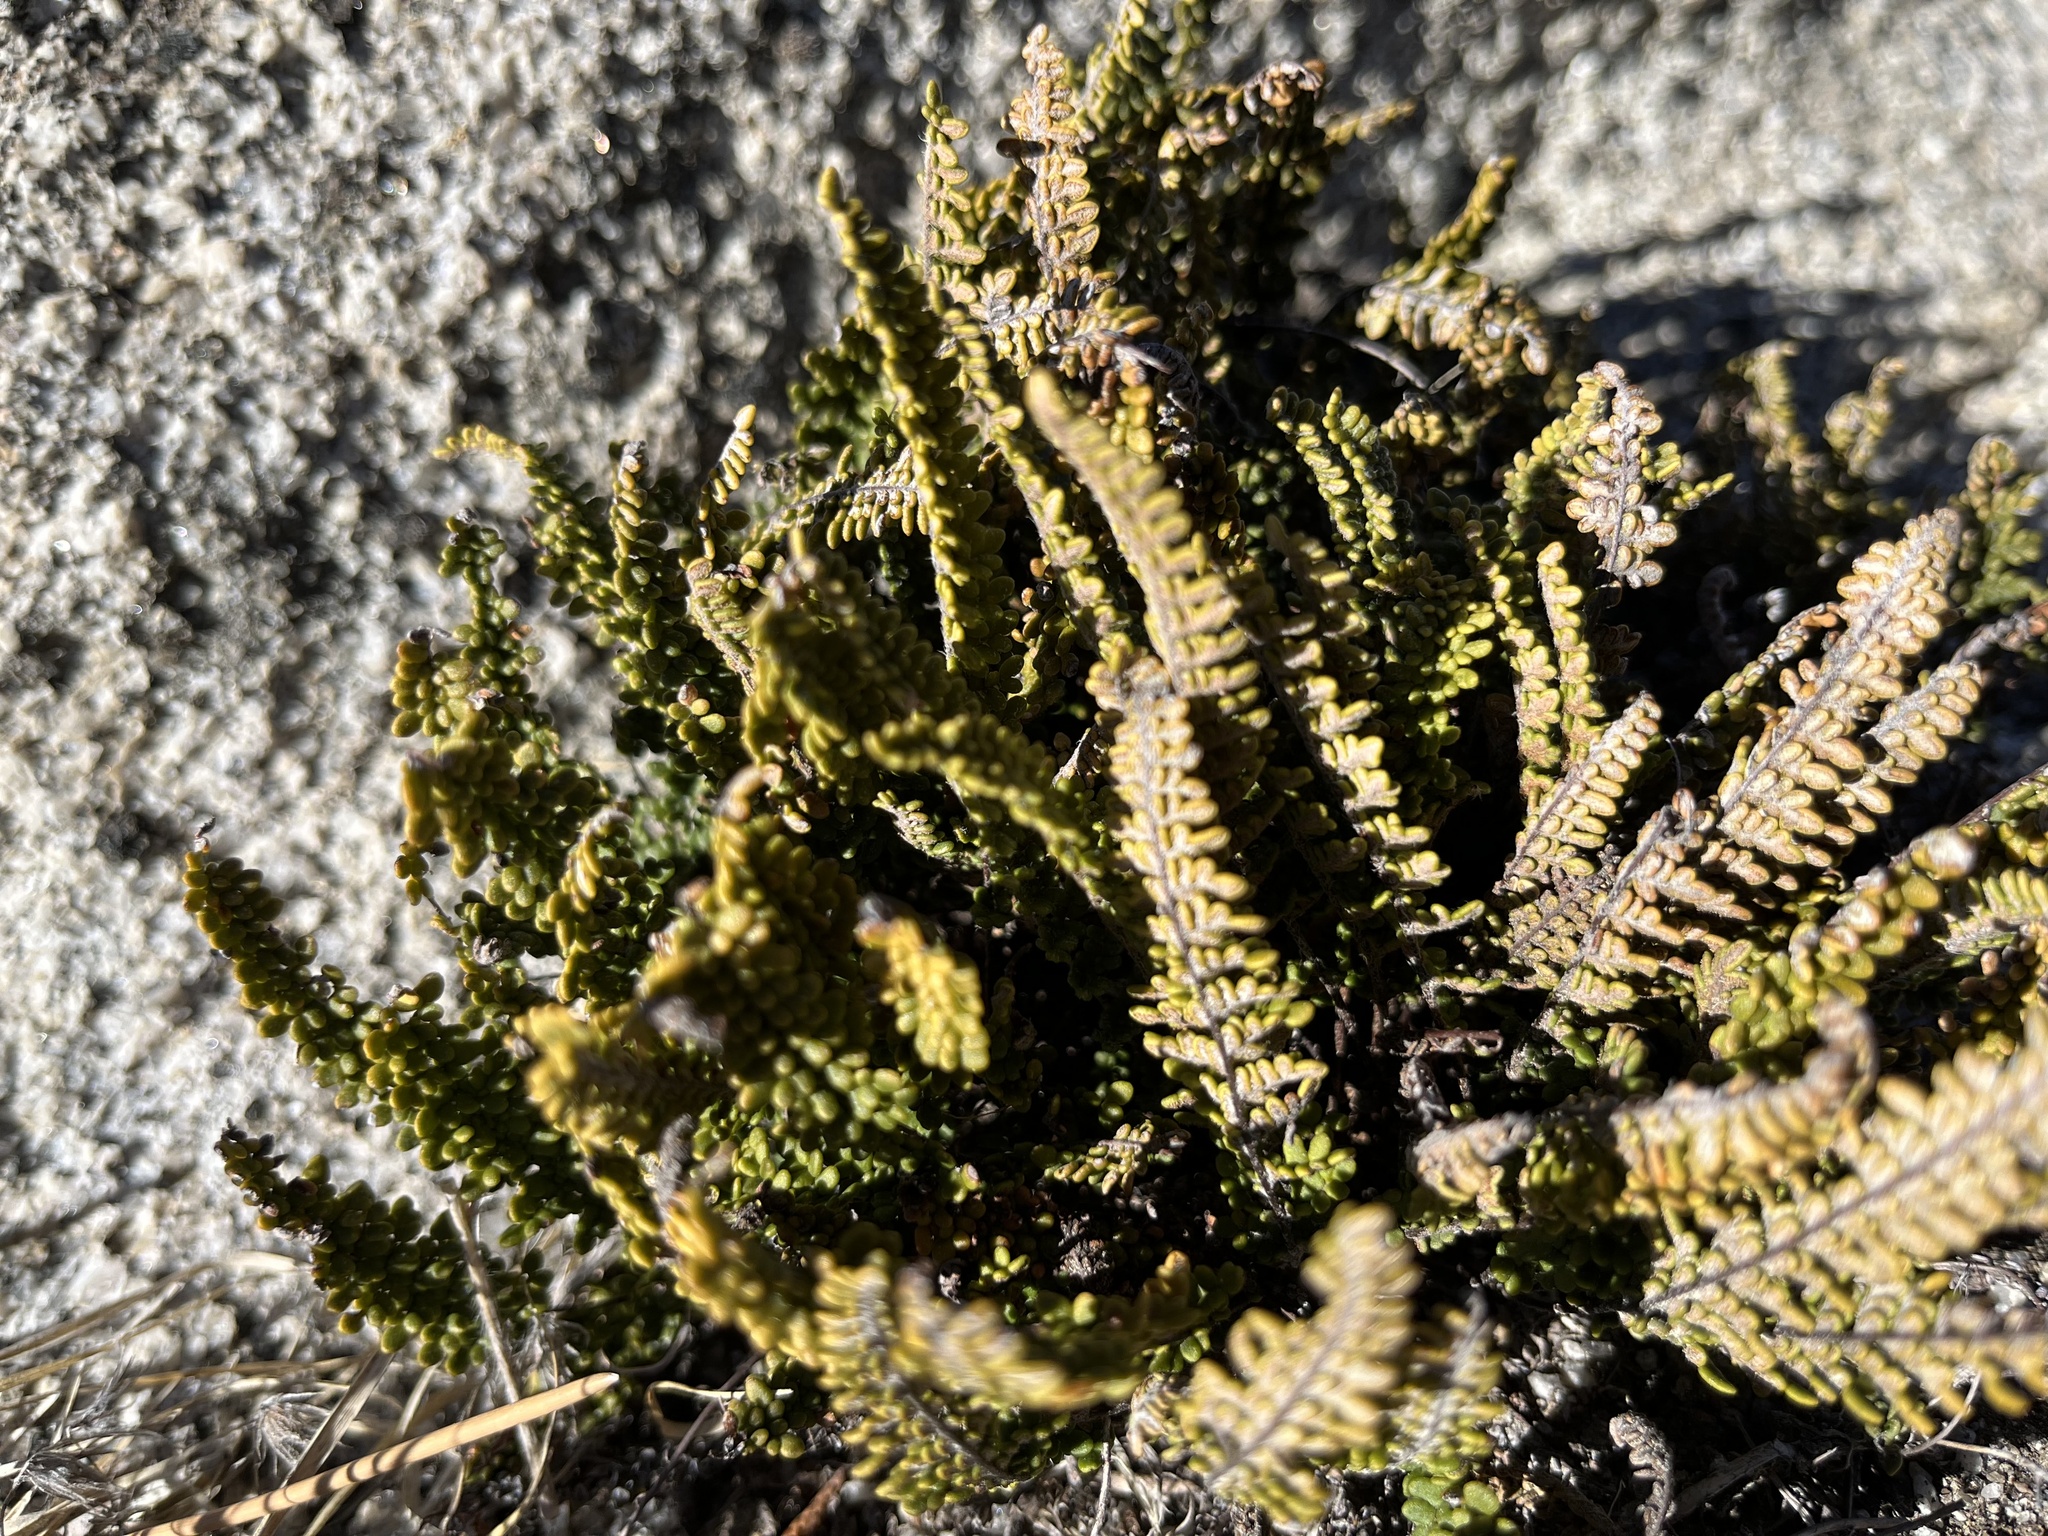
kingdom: Plantae
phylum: Tracheophyta
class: Polypodiopsida
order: Polypodiales
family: Pteridaceae
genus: Myriopteris
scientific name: Myriopteris gracillima
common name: Lace fern
